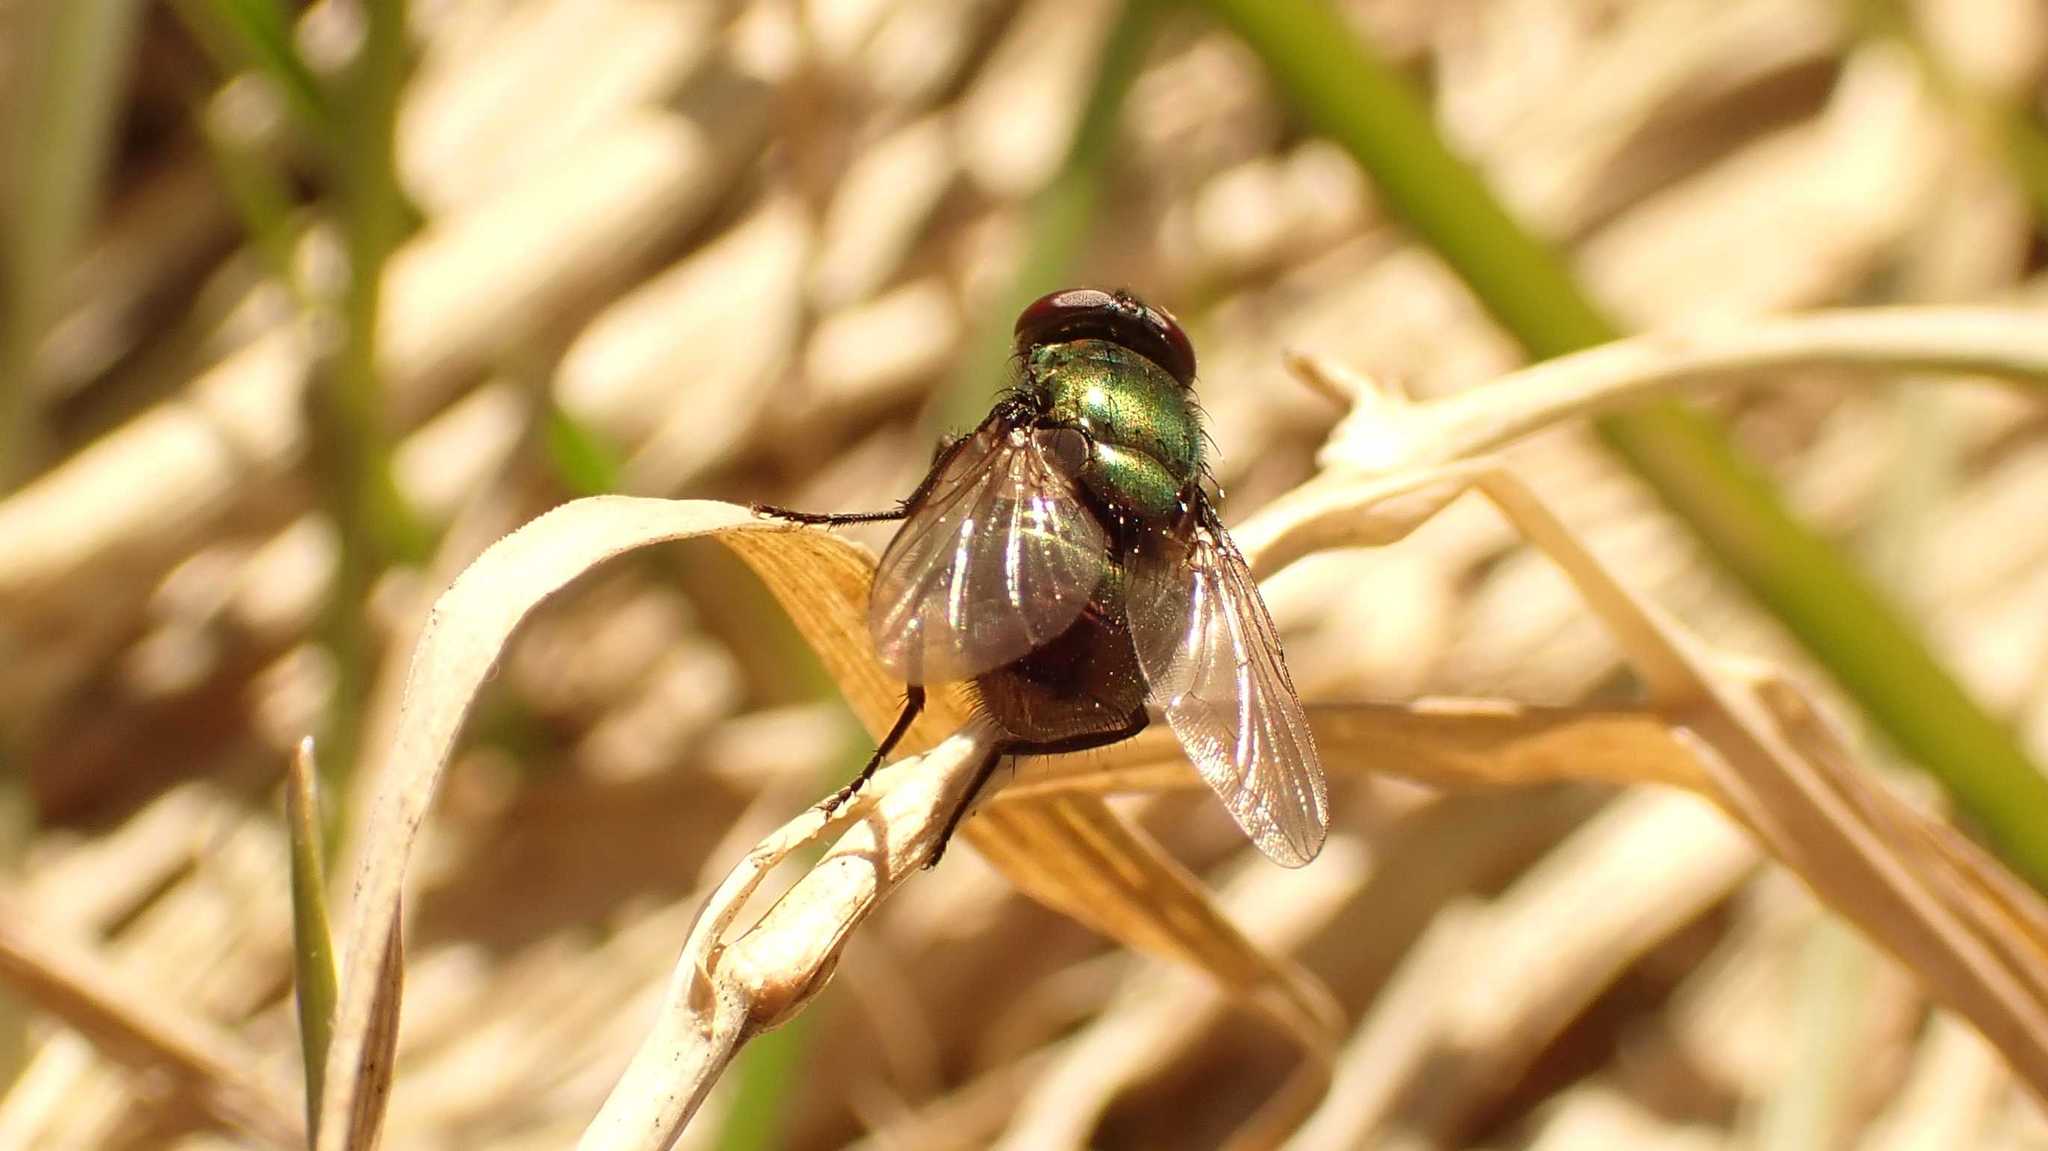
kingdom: Animalia
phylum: Arthropoda
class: Insecta
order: Diptera
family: Muscidae
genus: Neomyia
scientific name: Neomyia cornicina
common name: House fly
